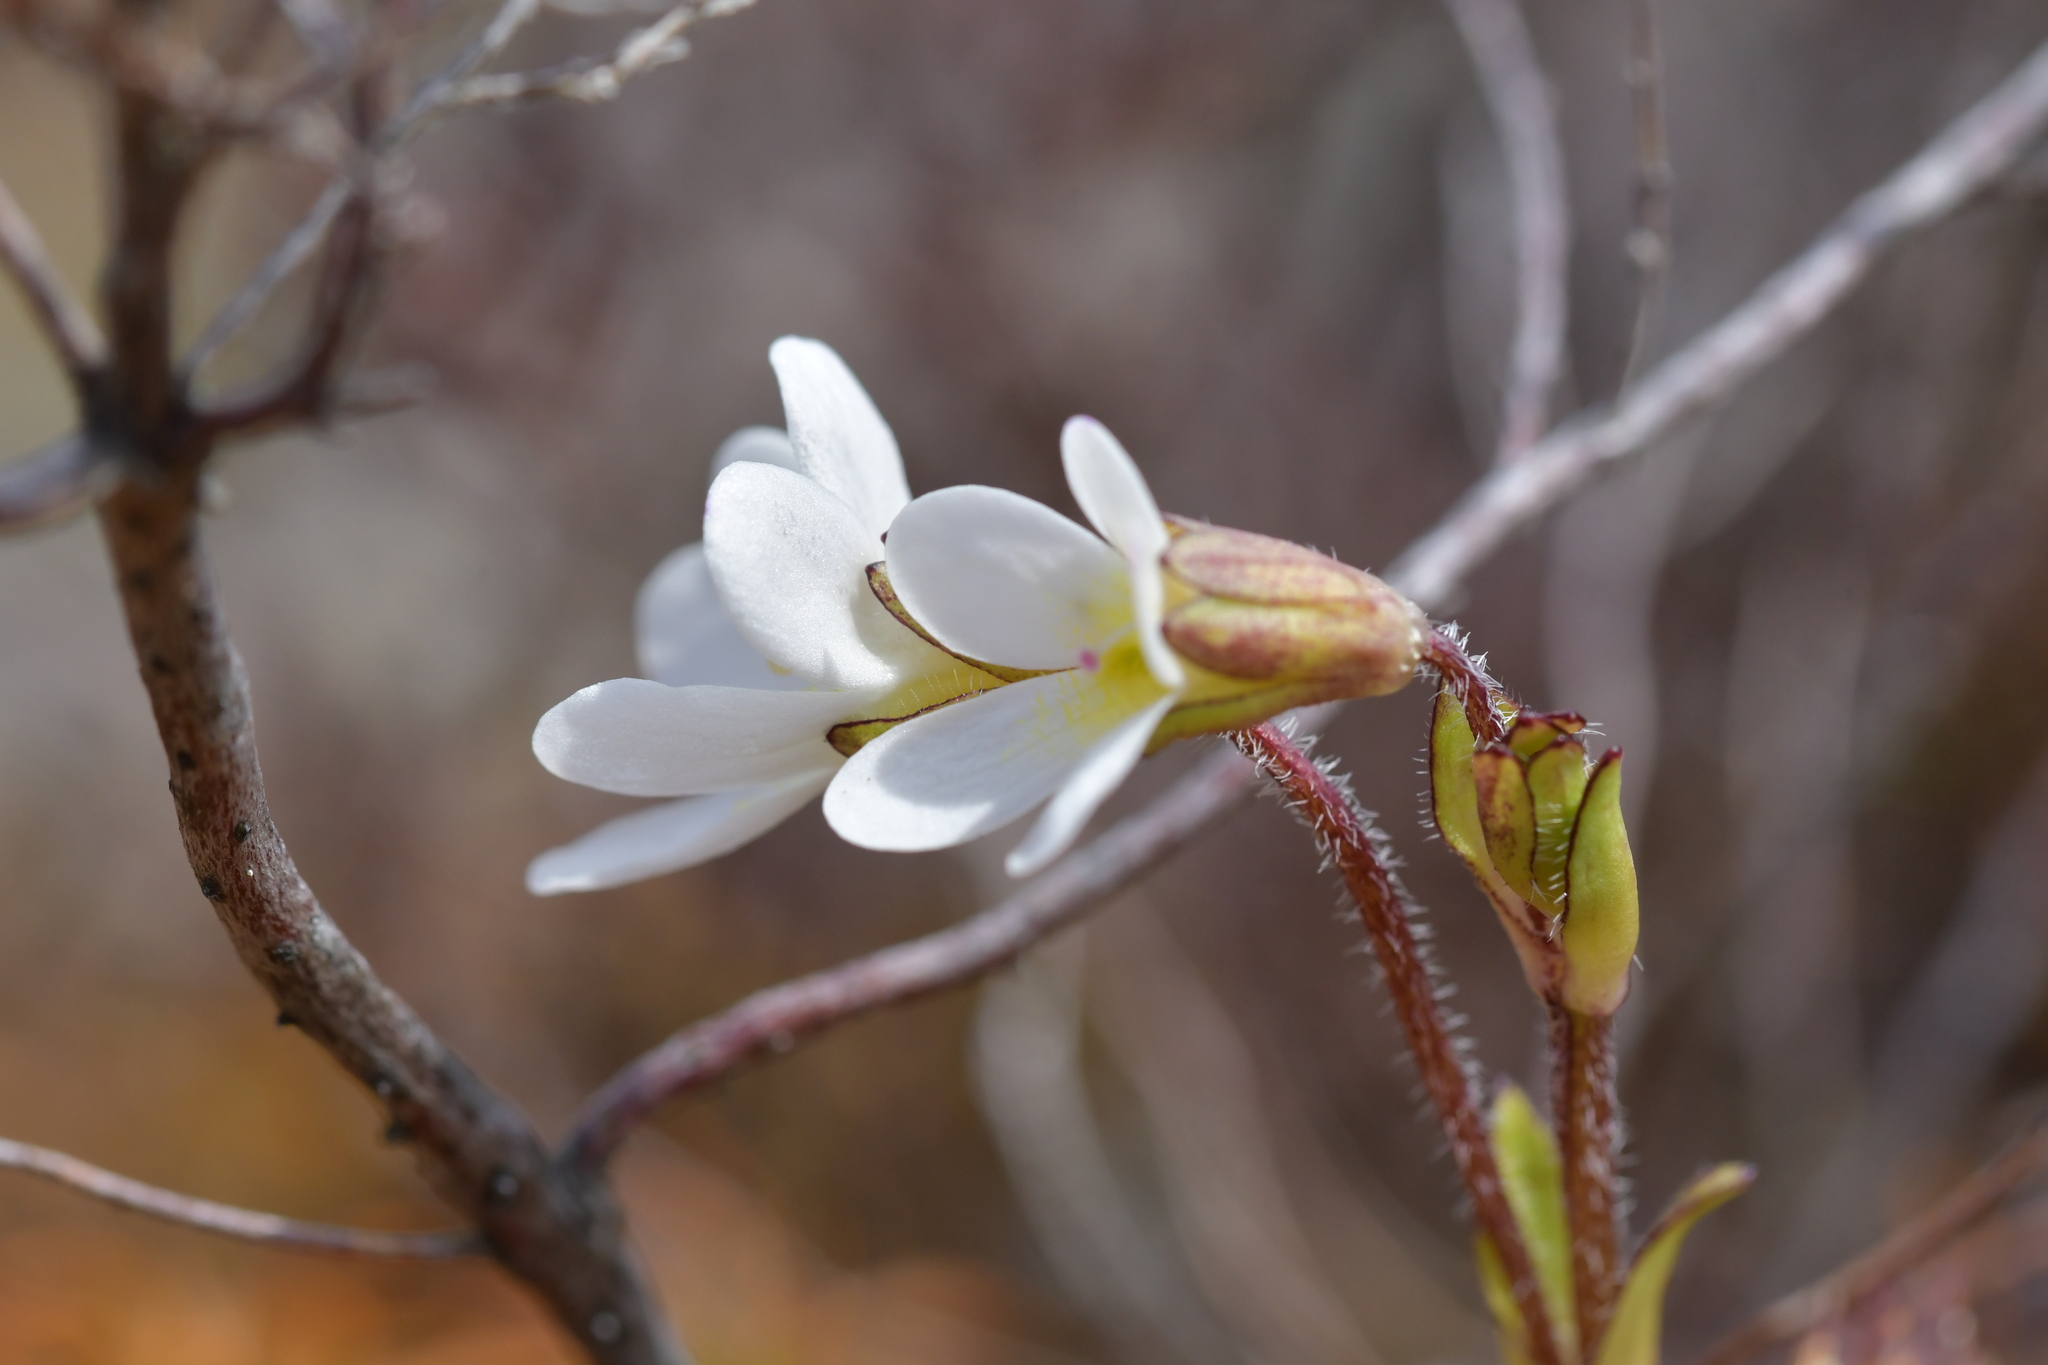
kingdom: Plantae
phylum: Tracheophyta
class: Magnoliopsida
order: Lamiales
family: Plantaginaceae
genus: Ourisia
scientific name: Ourisia vulcanica
